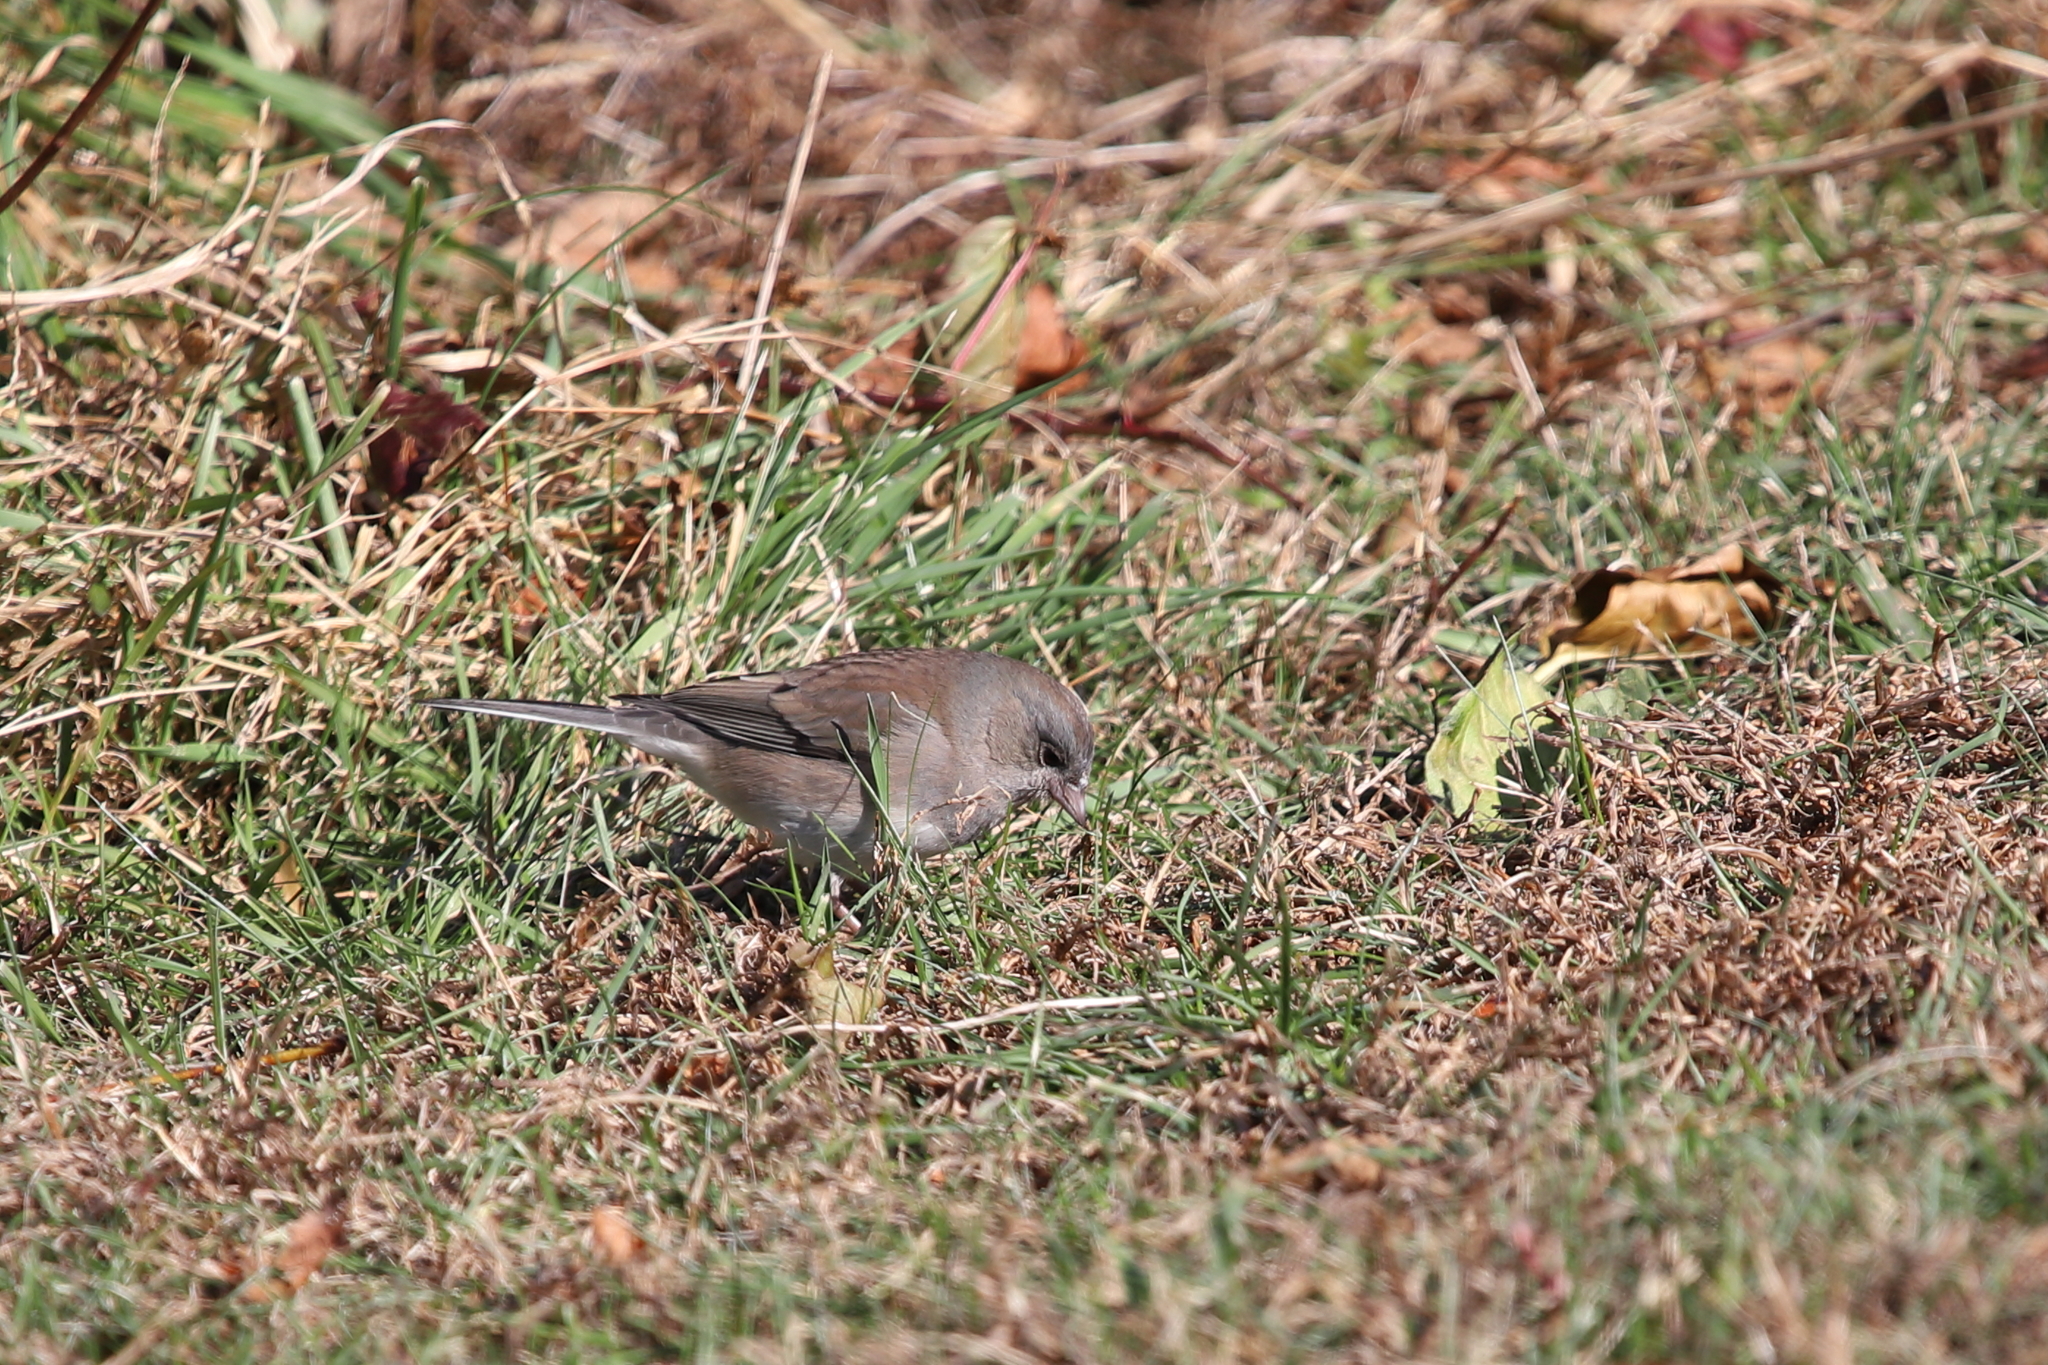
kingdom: Animalia
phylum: Chordata
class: Aves
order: Passeriformes
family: Passerellidae
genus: Junco
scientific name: Junco hyemalis
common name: Dark-eyed junco
